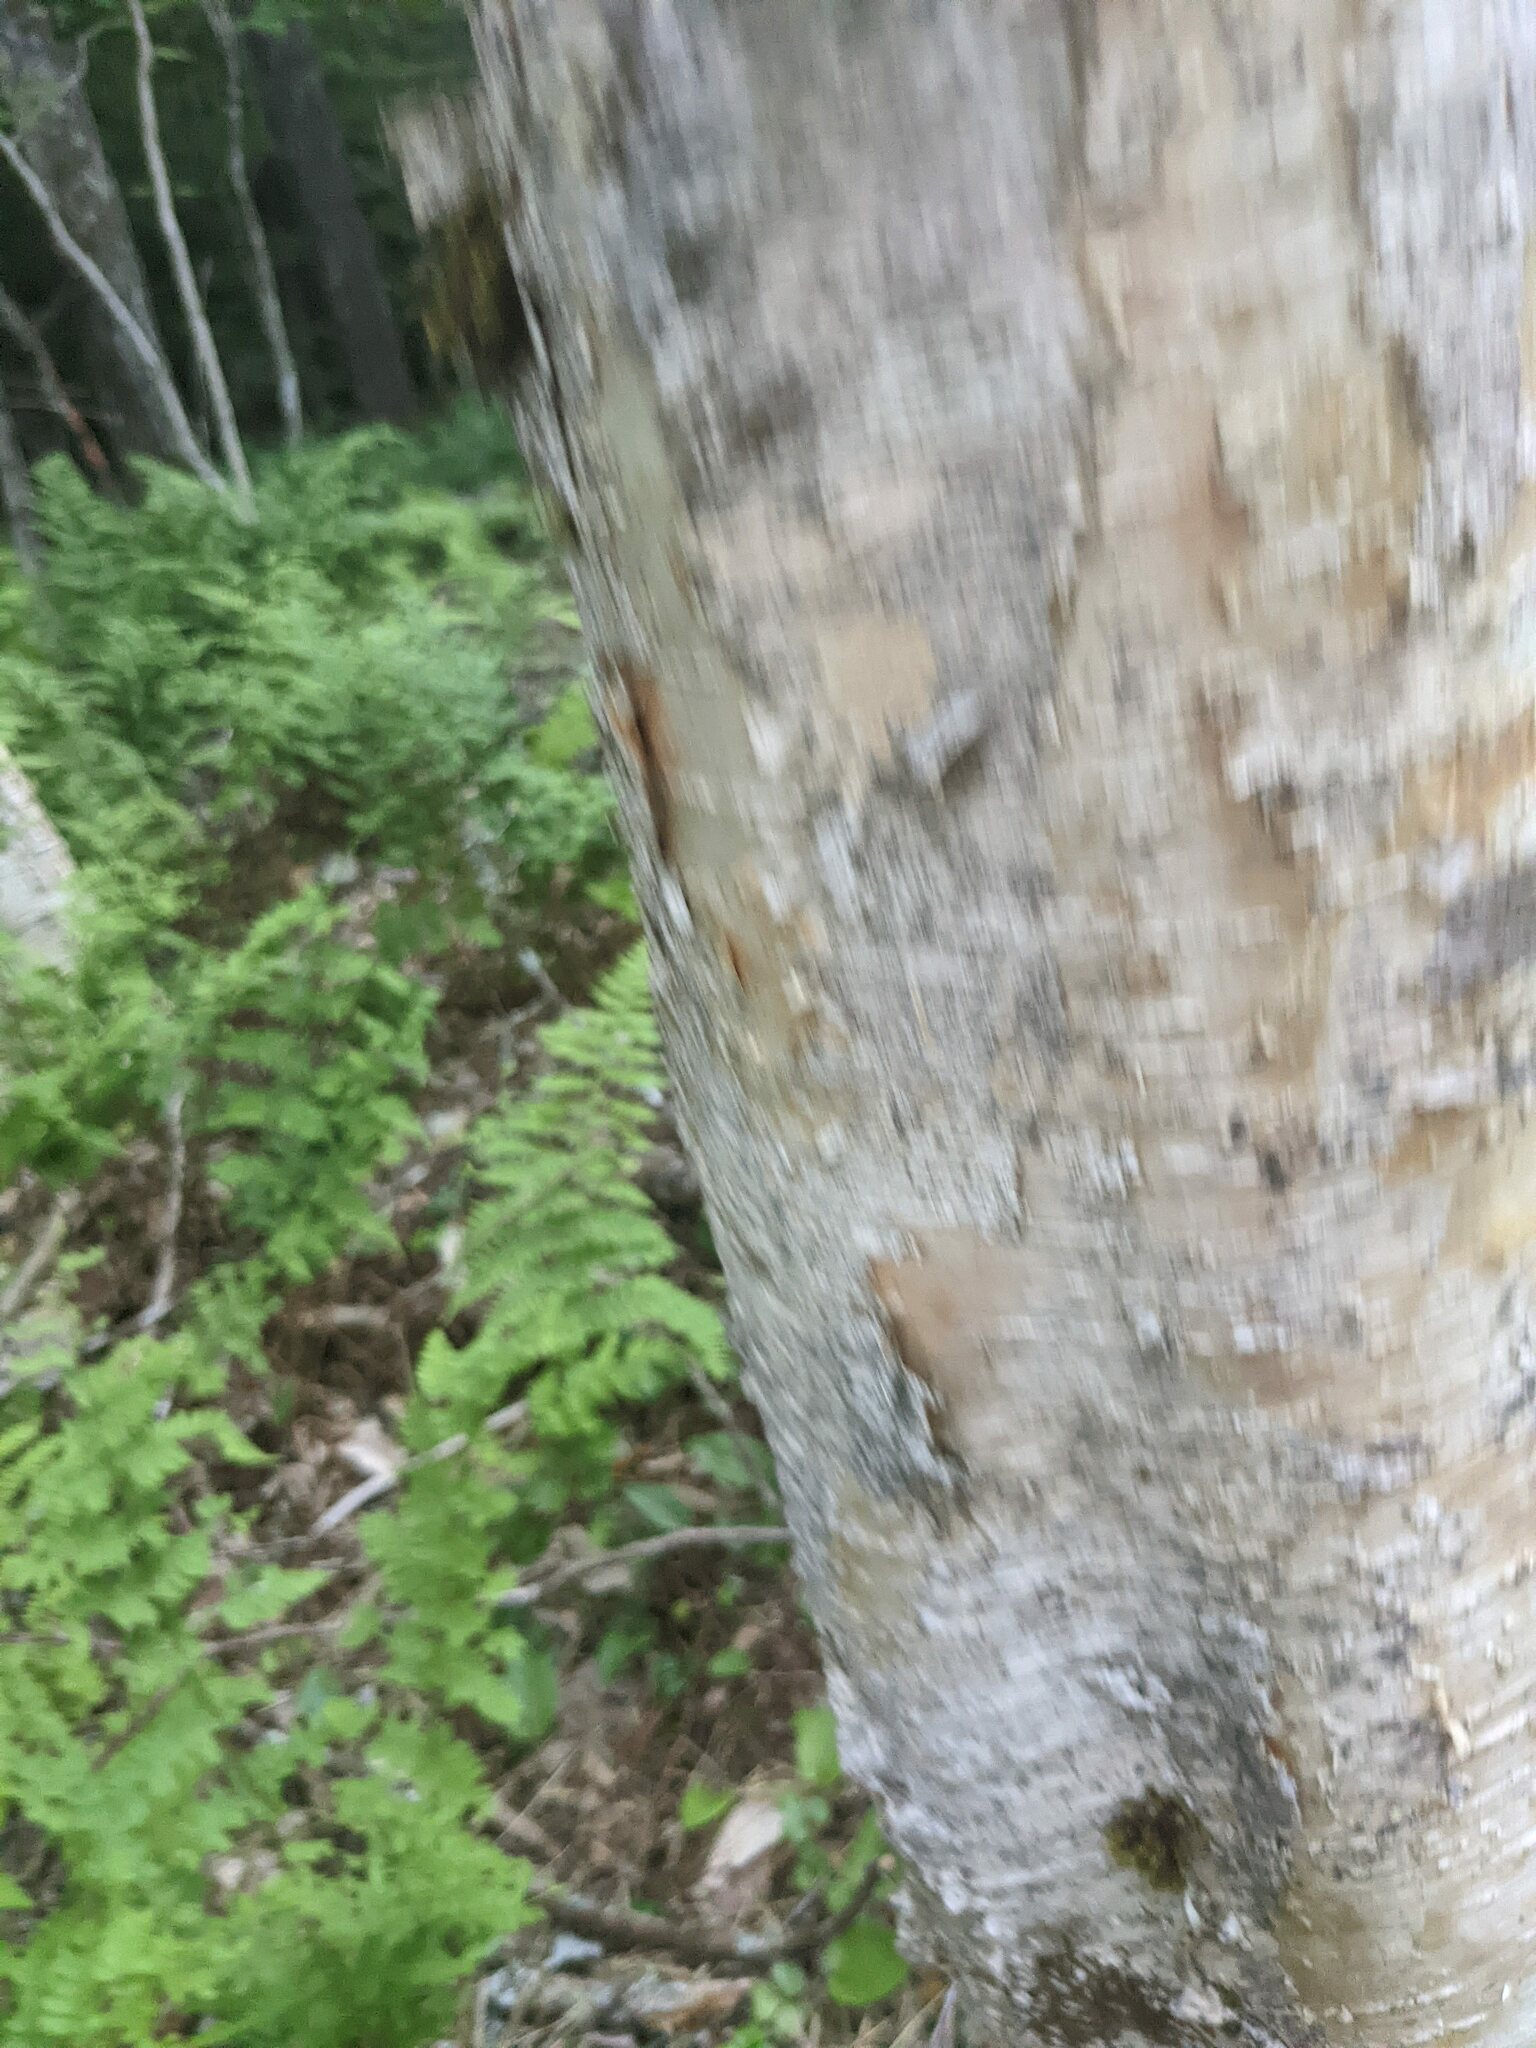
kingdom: Plantae
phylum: Tracheophyta
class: Magnoliopsida
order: Fagales
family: Betulaceae
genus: Betula
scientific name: Betula alleghaniensis
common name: Yellow birch
